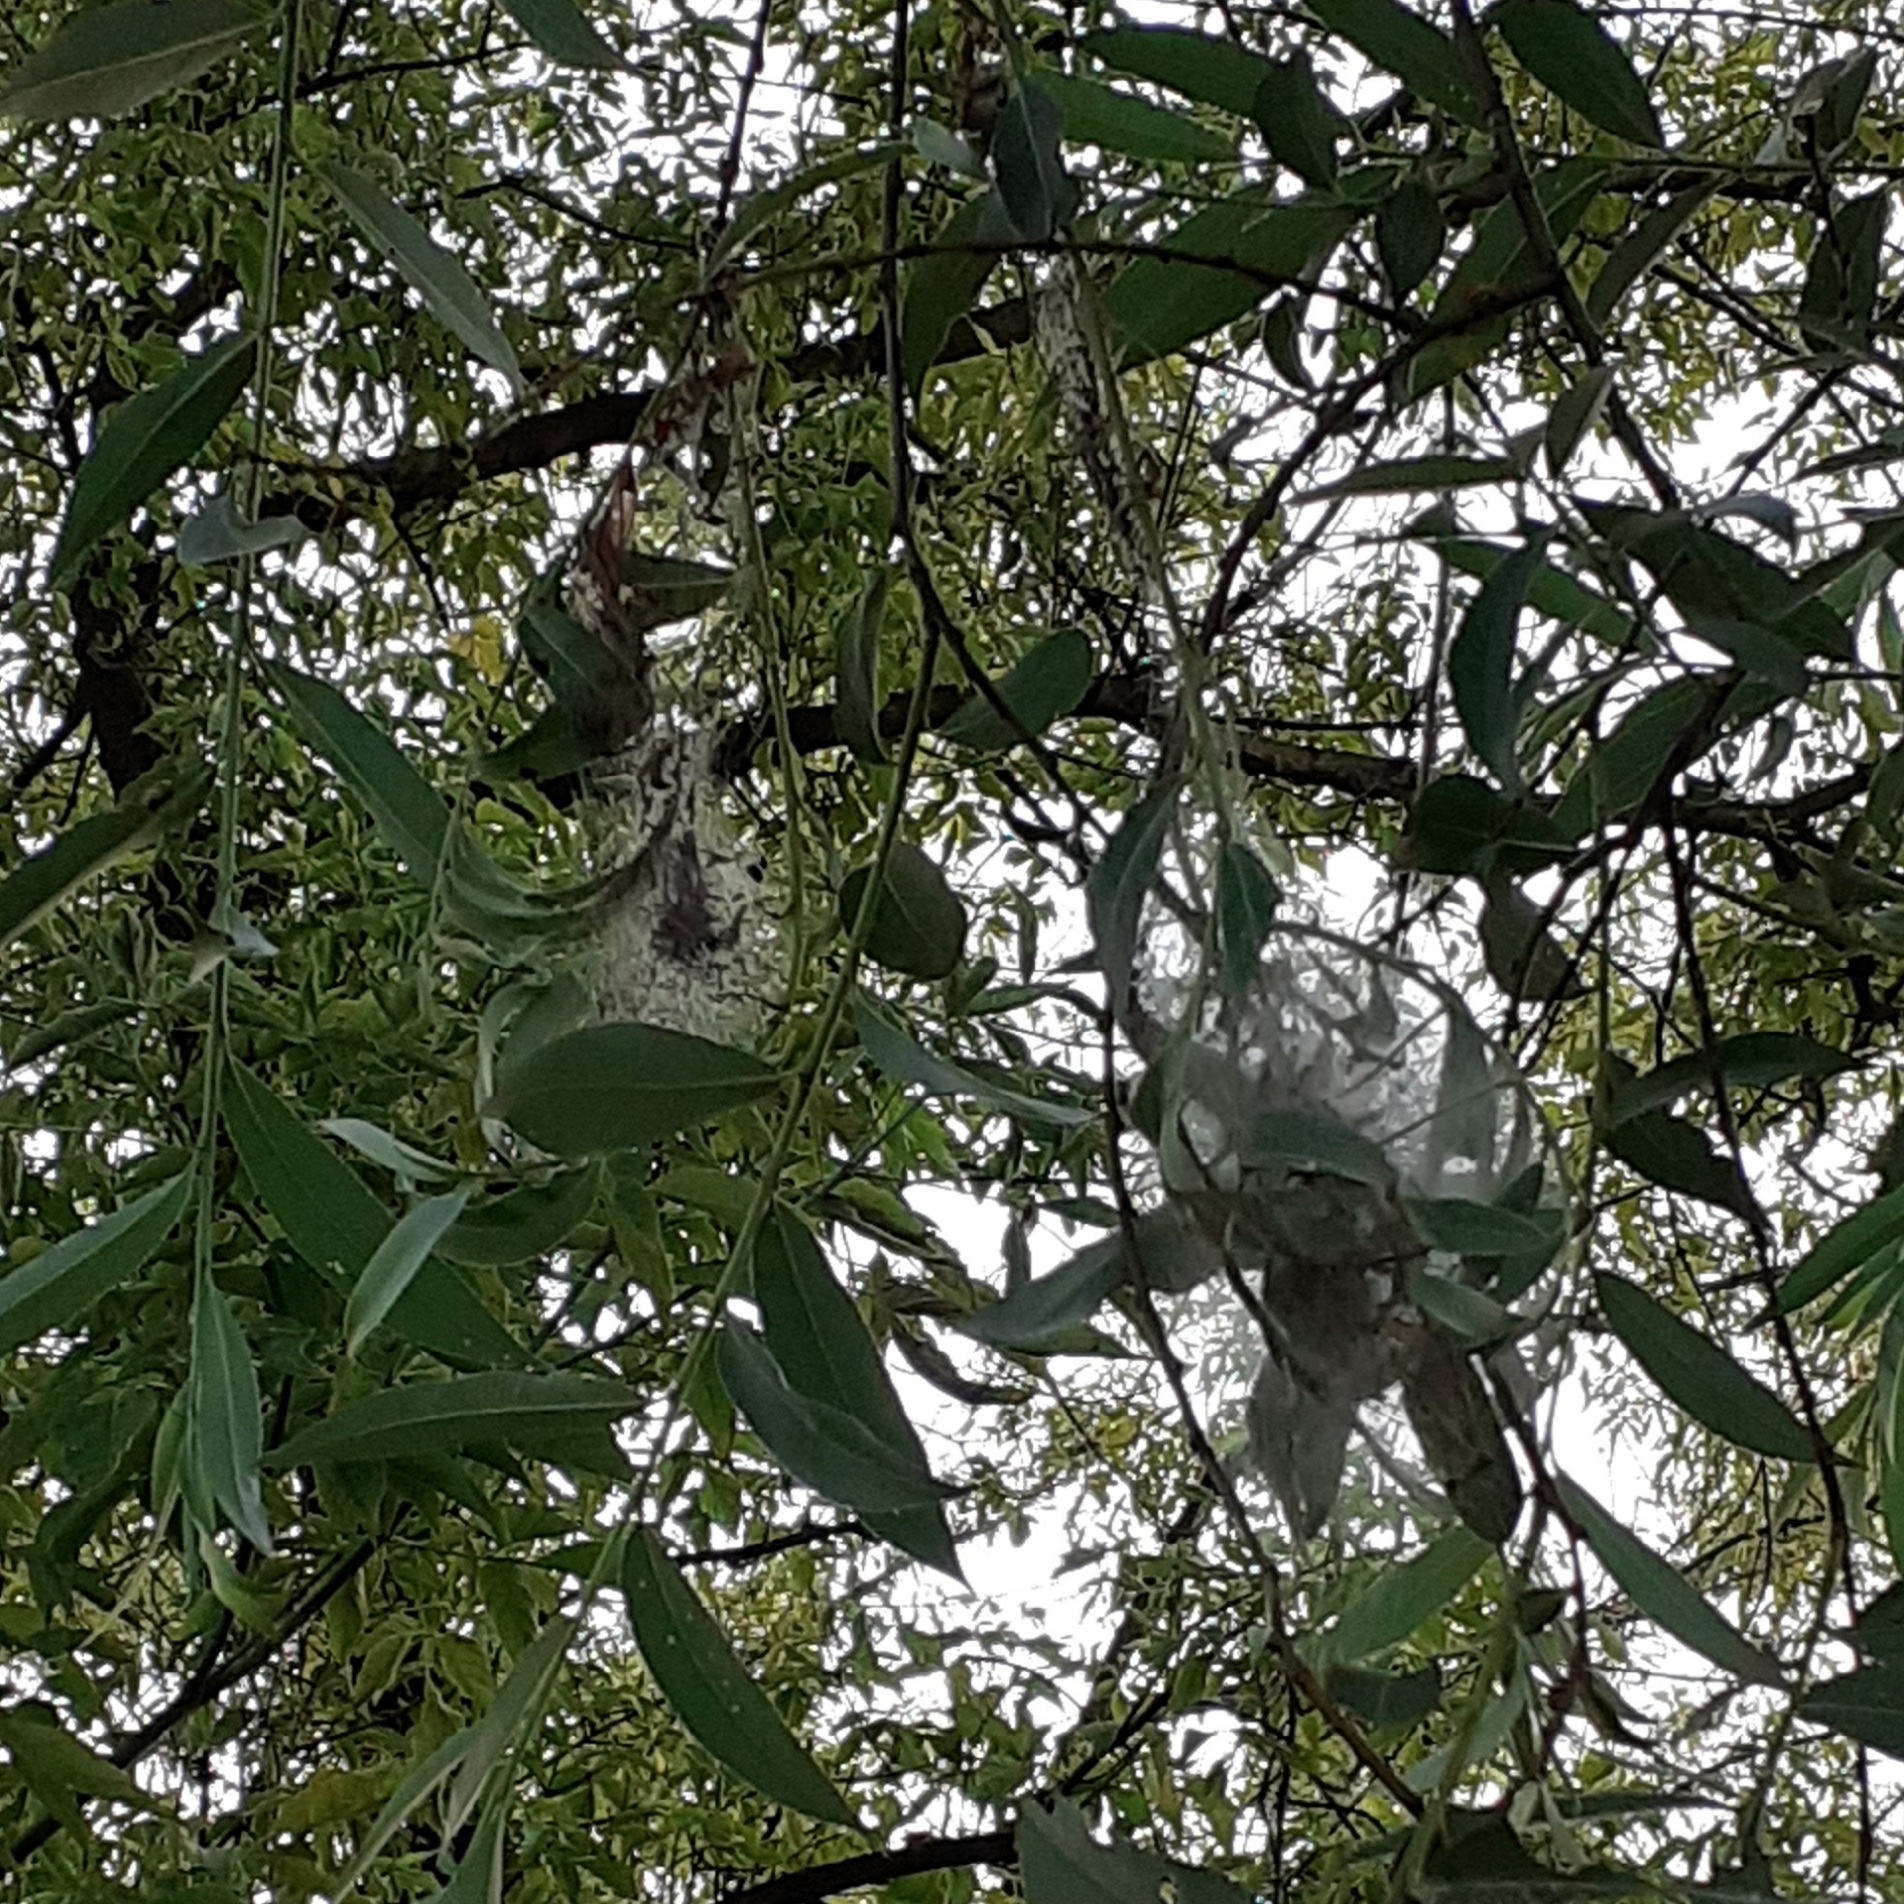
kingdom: Animalia
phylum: Arthropoda
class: Insecta
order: Lepidoptera
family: Yponomeutidae
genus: Yponomeuta
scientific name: Yponomeuta padella
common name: Orchard ermine
